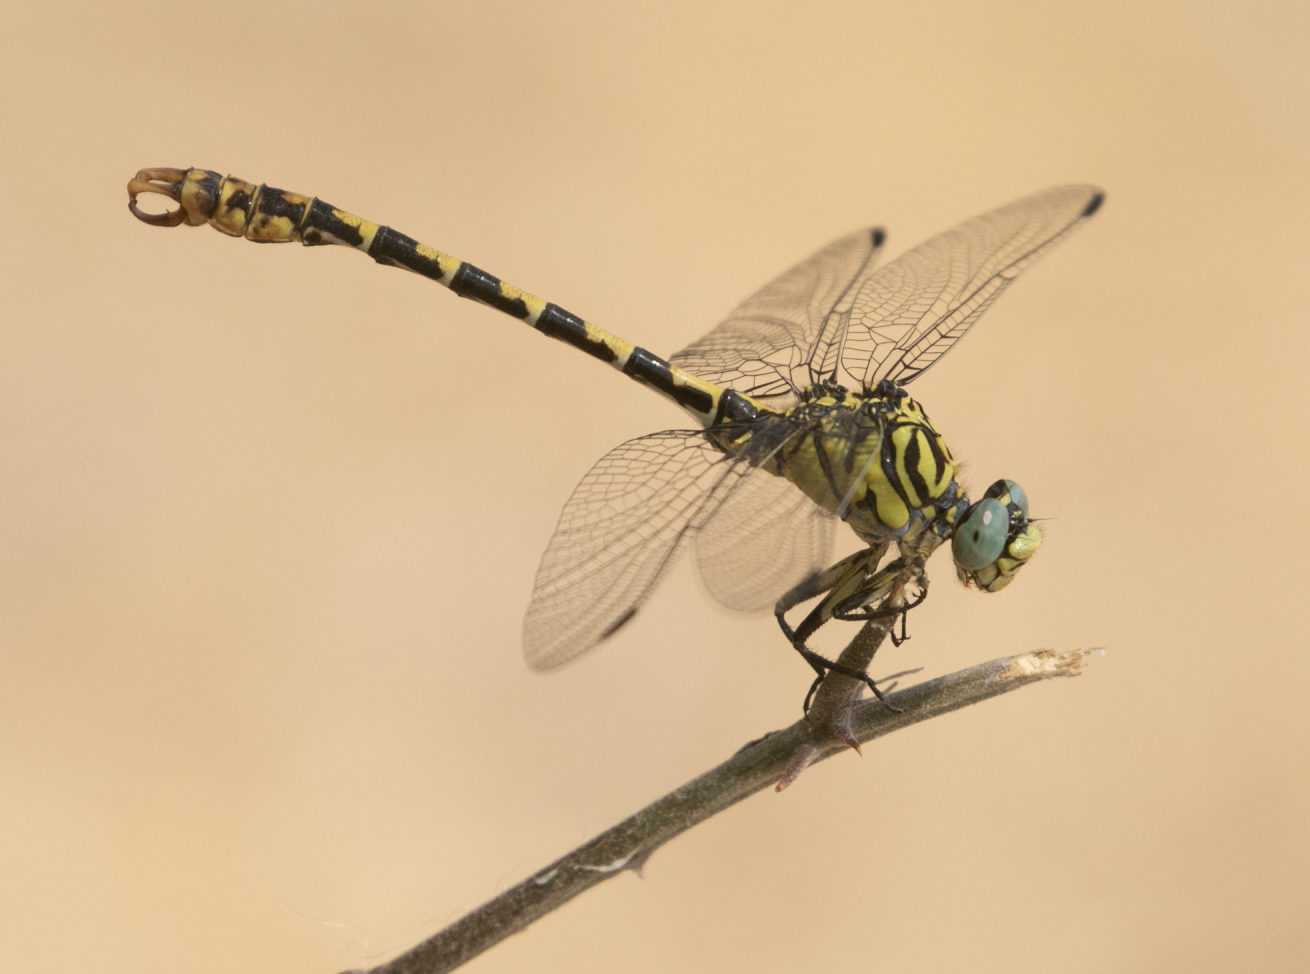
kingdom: Animalia
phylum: Arthropoda
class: Insecta
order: Odonata
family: Gomphidae
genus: Onychogomphus
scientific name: Onychogomphus forcipatus
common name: Small pincertail
